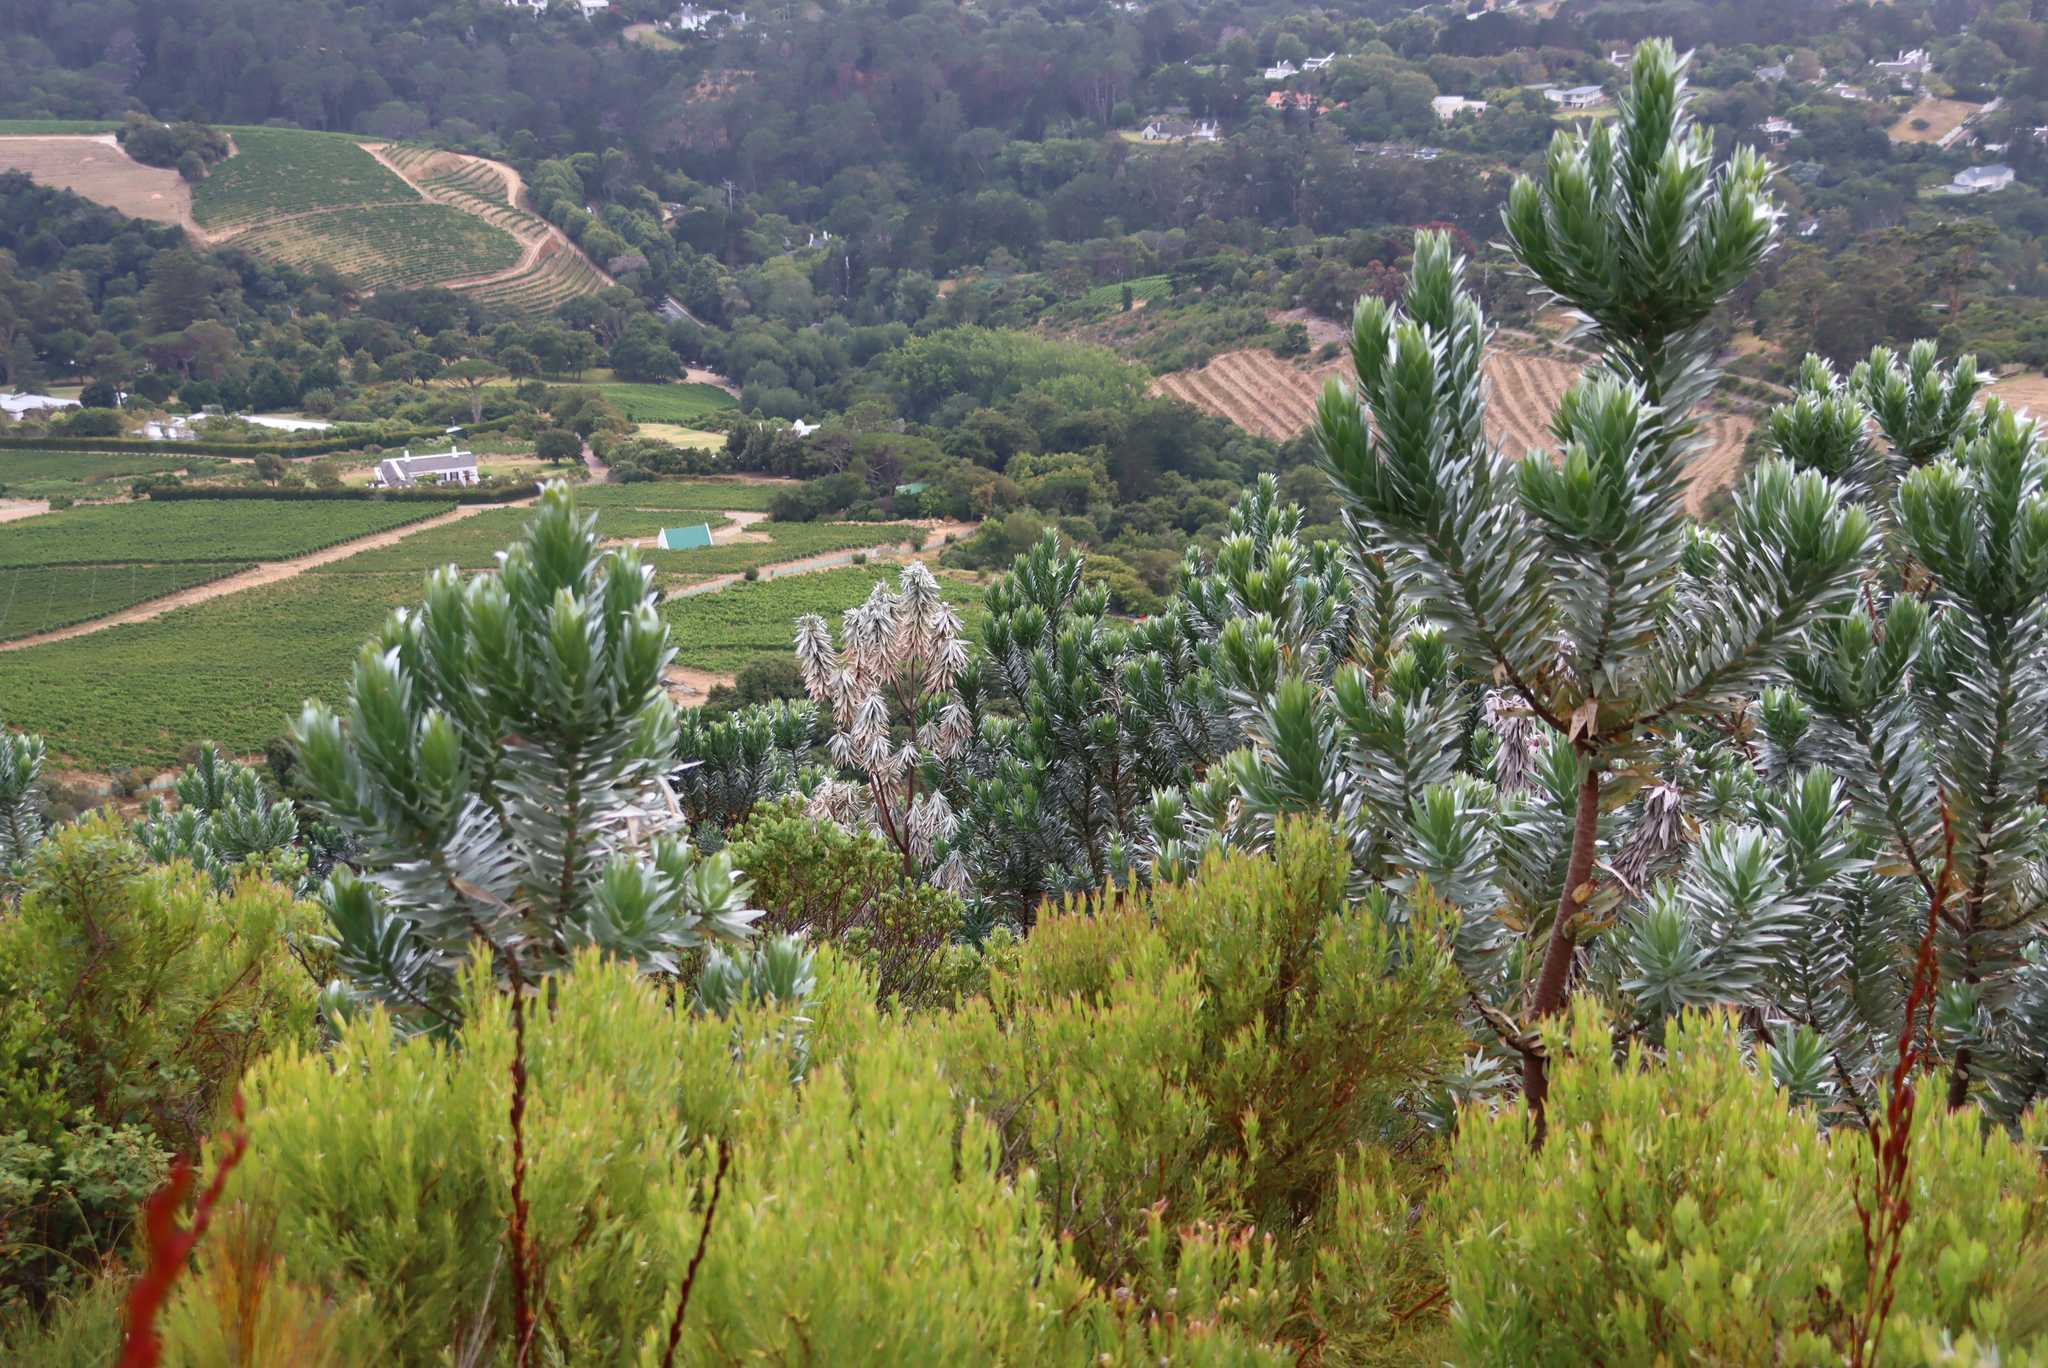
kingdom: Plantae
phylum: Tracheophyta
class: Magnoliopsida
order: Proteales
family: Proteaceae
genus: Leucadendron
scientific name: Leucadendron argenteum
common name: Cape silver tree
